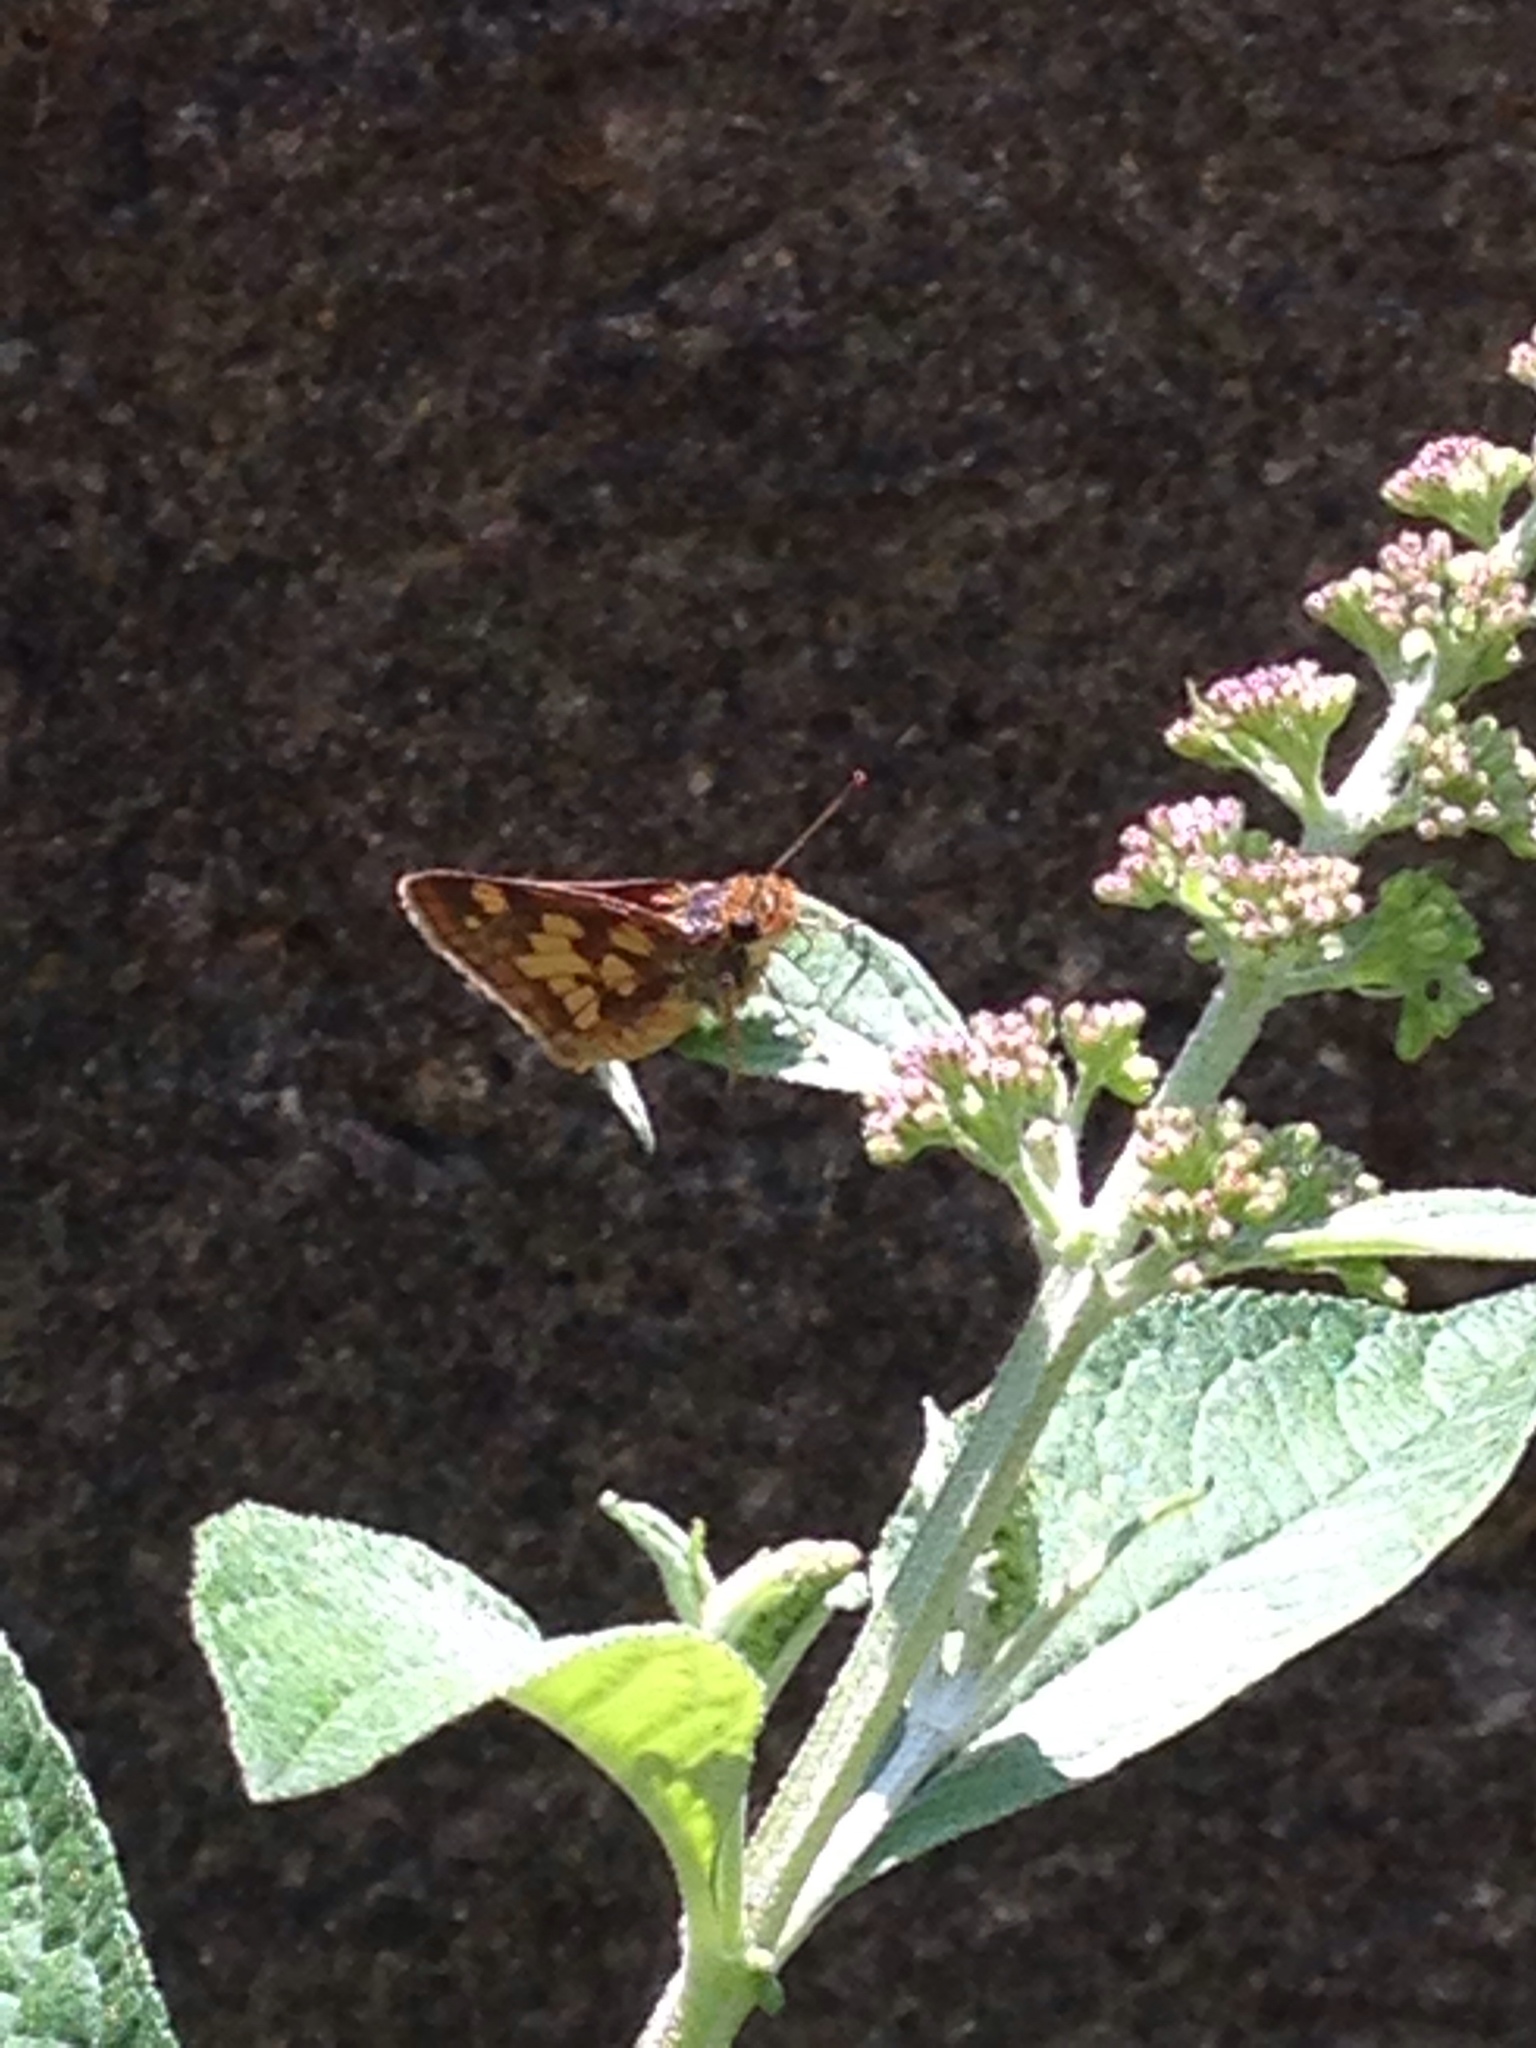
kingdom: Animalia
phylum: Arthropoda
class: Insecta
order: Lepidoptera
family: Hesperiidae
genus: Polites
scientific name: Polites coras
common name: Peck's skipper
